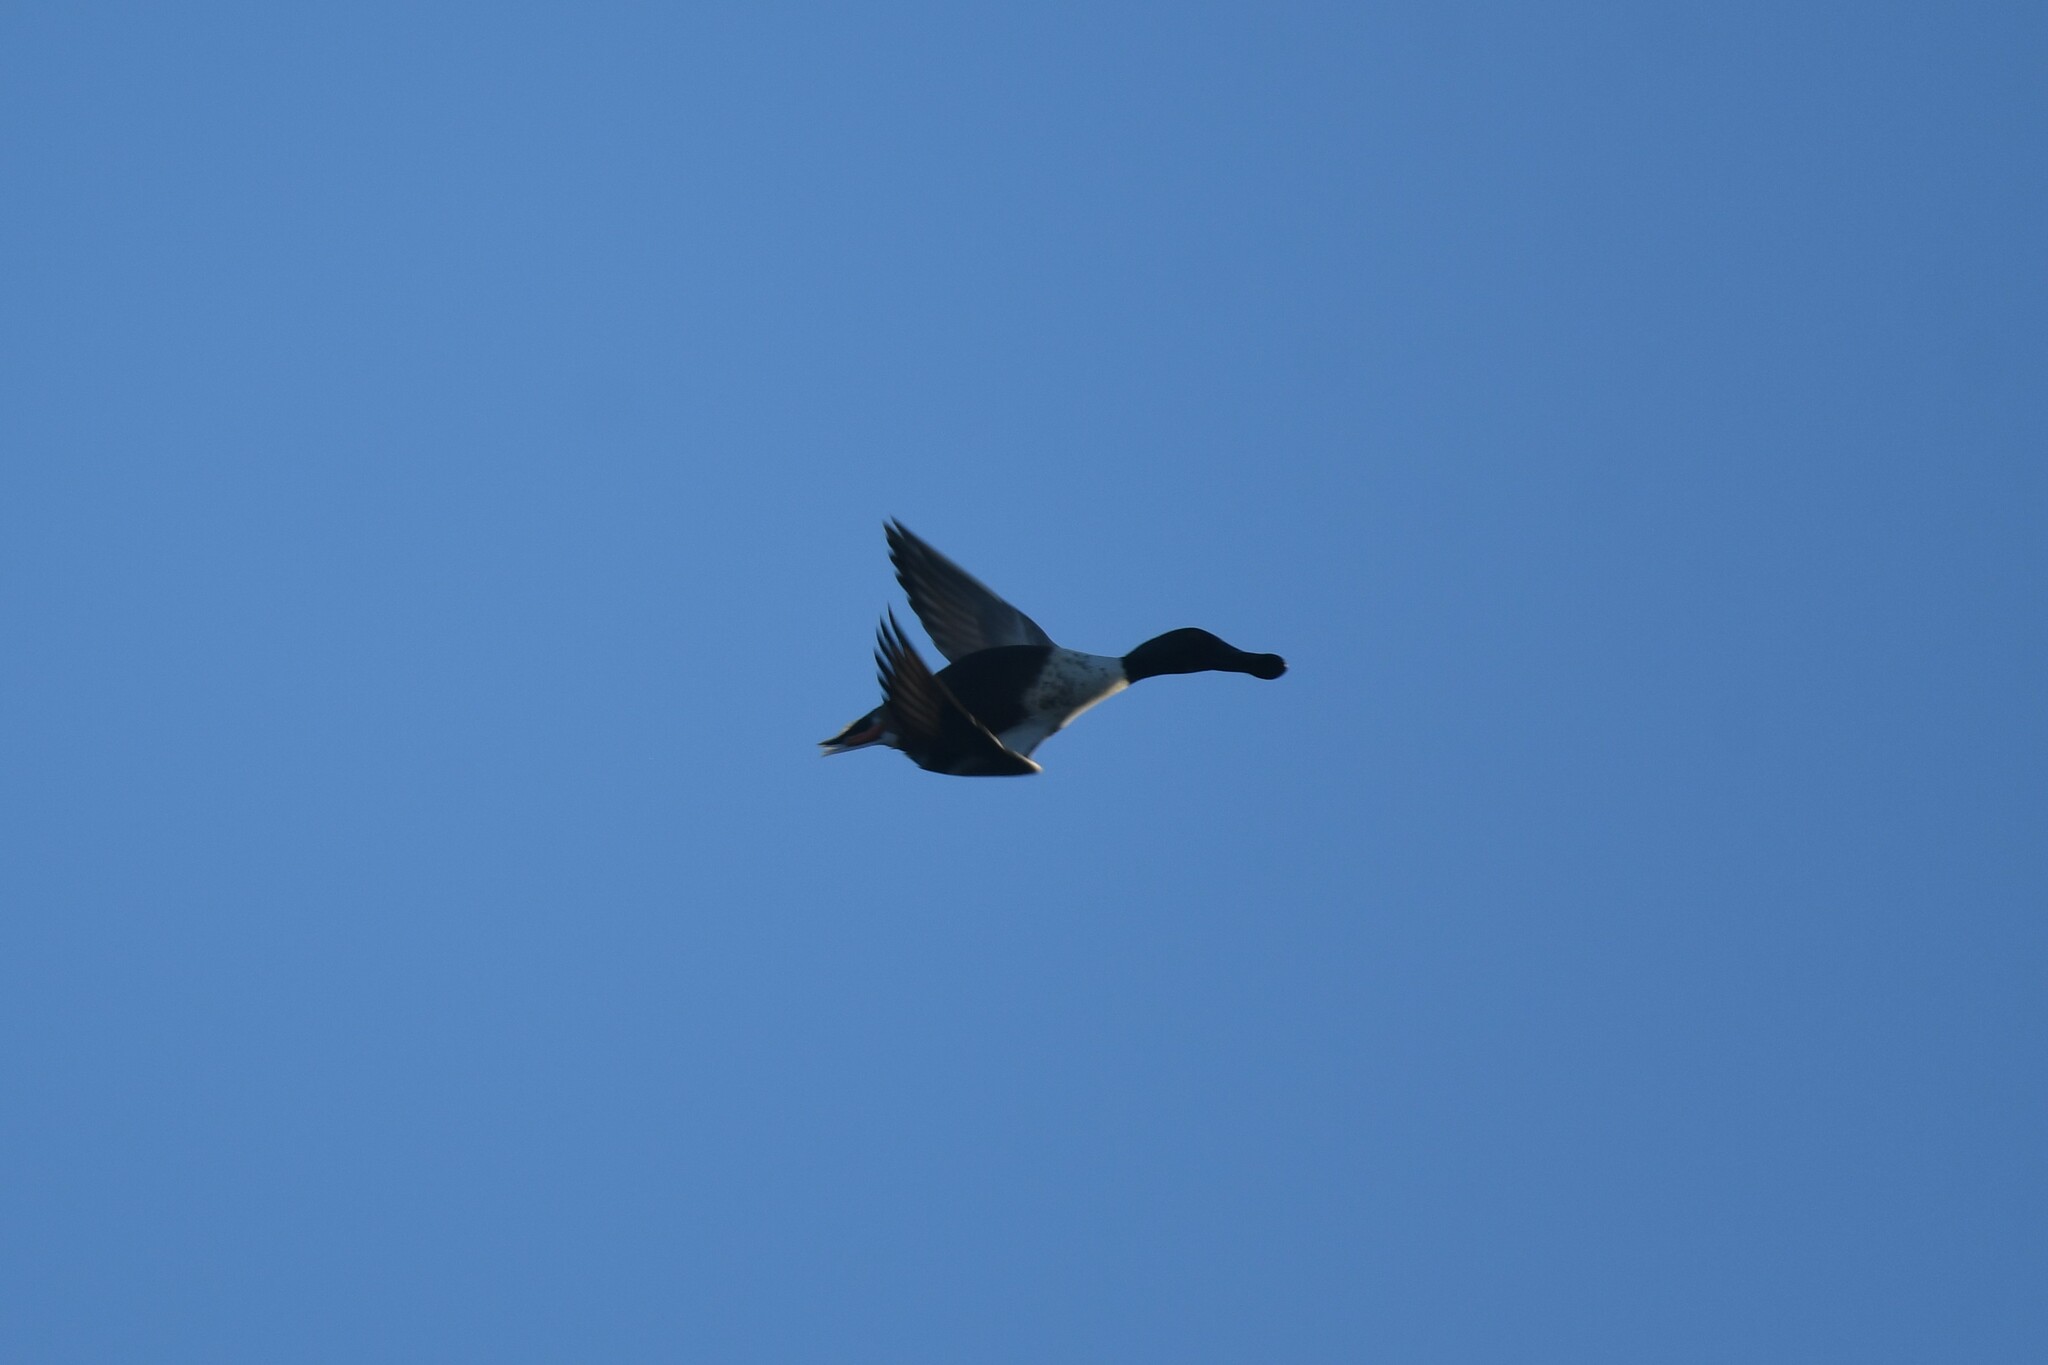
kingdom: Animalia
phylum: Chordata
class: Aves
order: Anseriformes
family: Anatidae
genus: Spatula
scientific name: Spatula clypeata
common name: Northern shoveler
